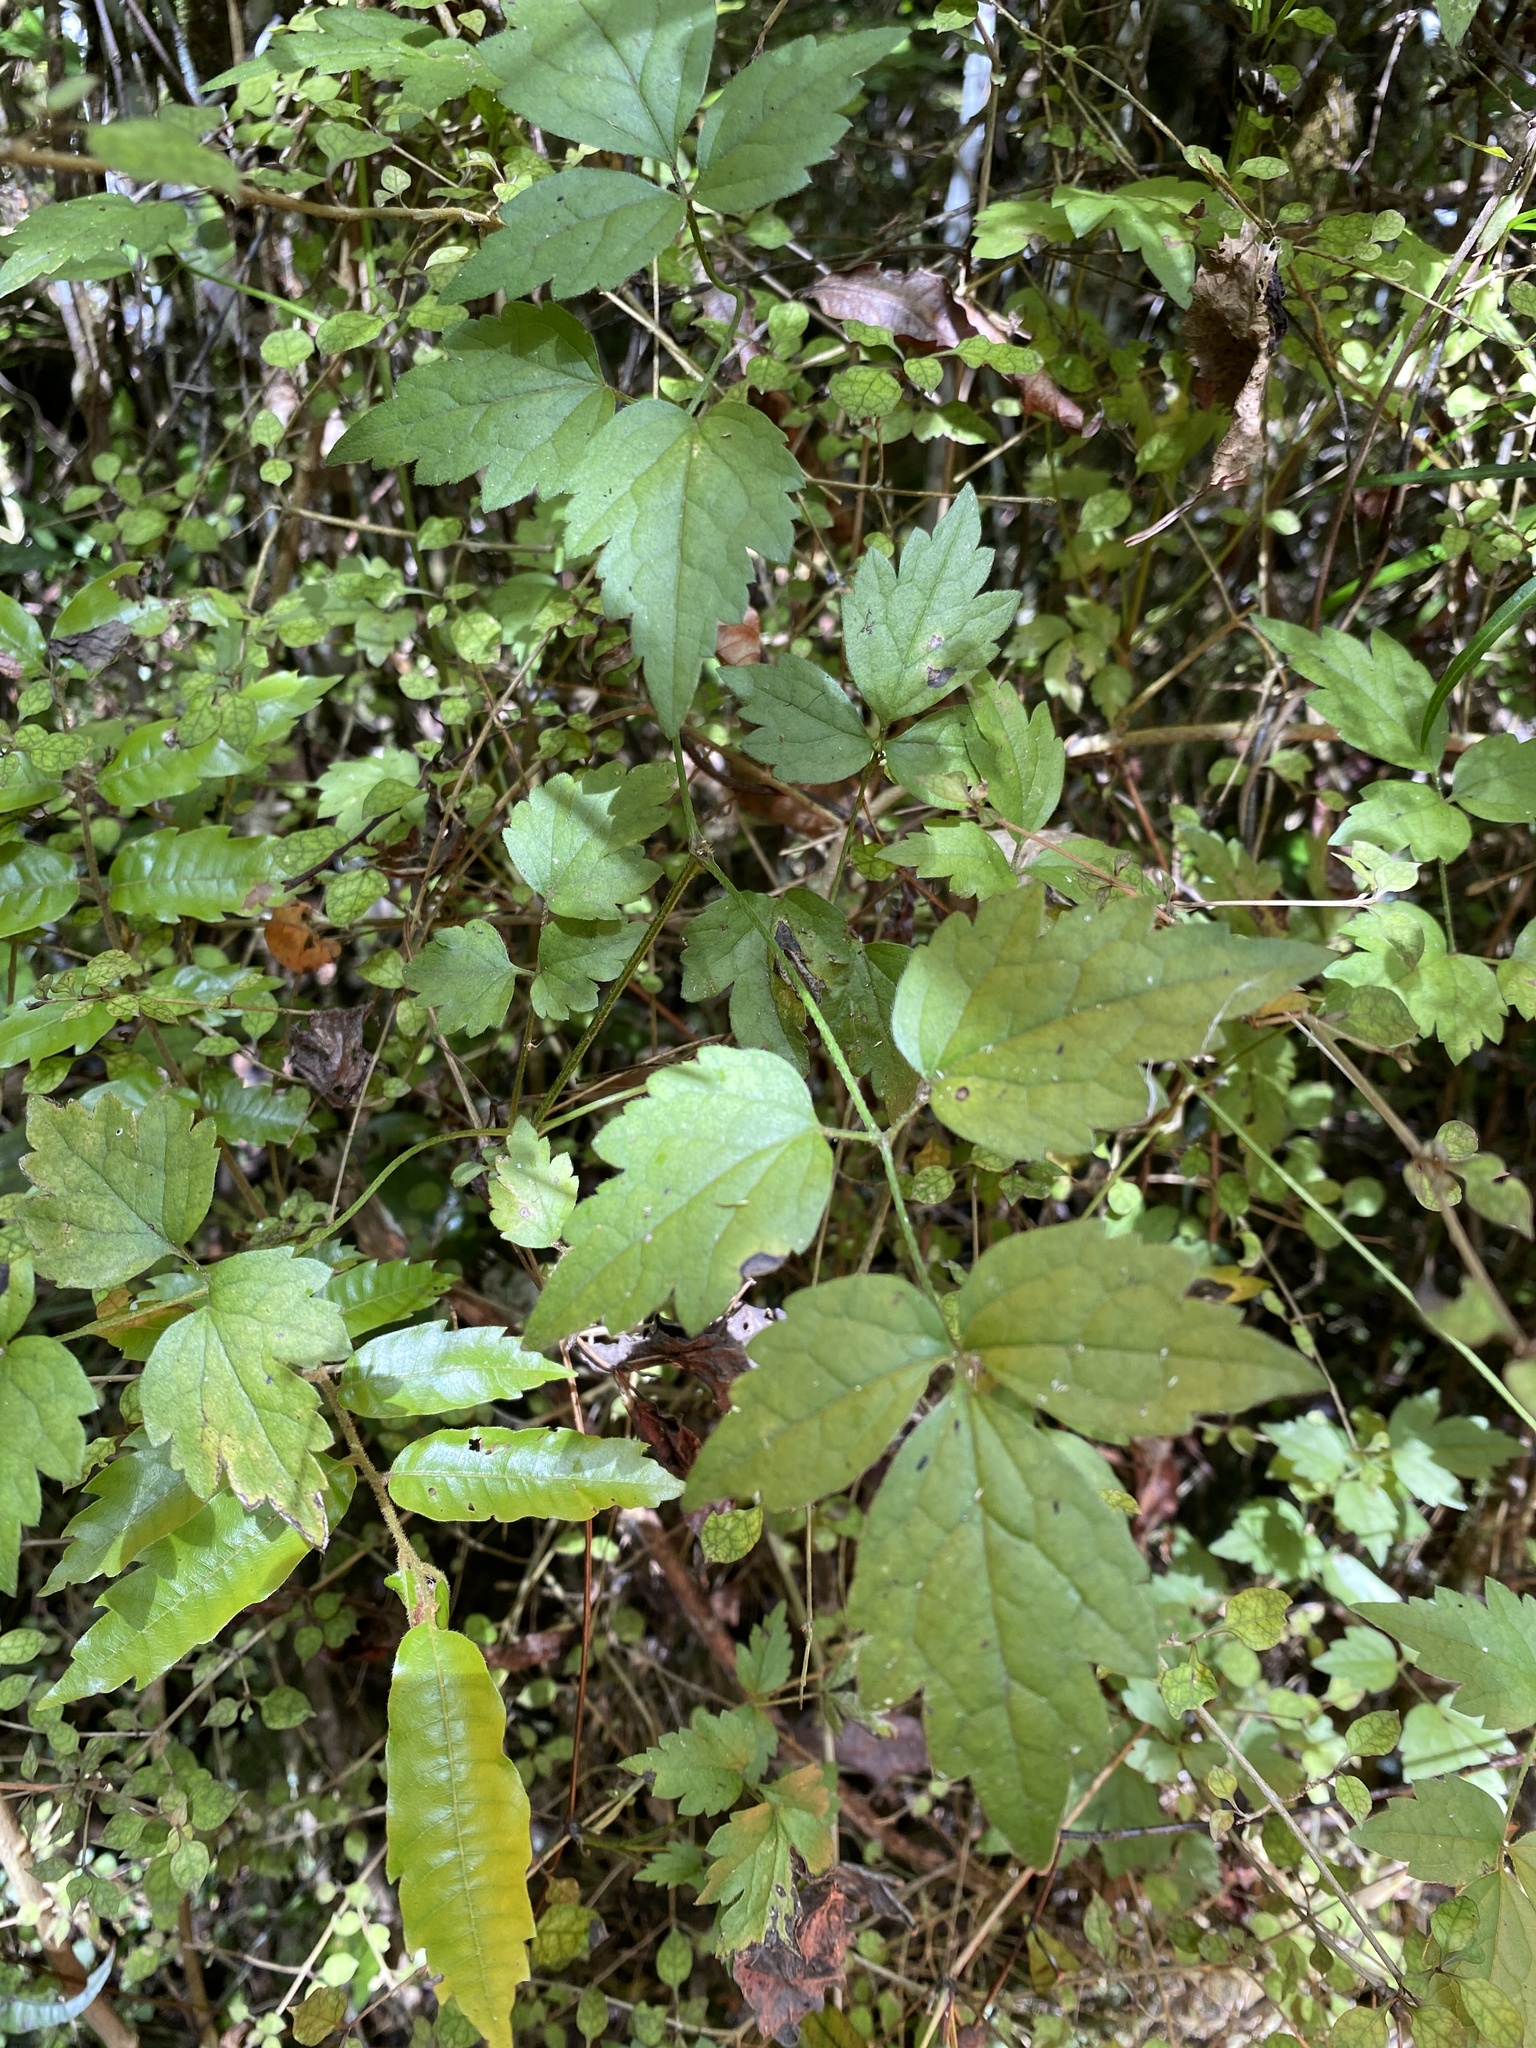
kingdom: Plantae
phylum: Tracheophyta
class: Magnoliopsida
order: Ranunculales
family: Ranunculaceae
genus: Clematis
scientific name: Clematis vitalba
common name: Evergreen clematis
